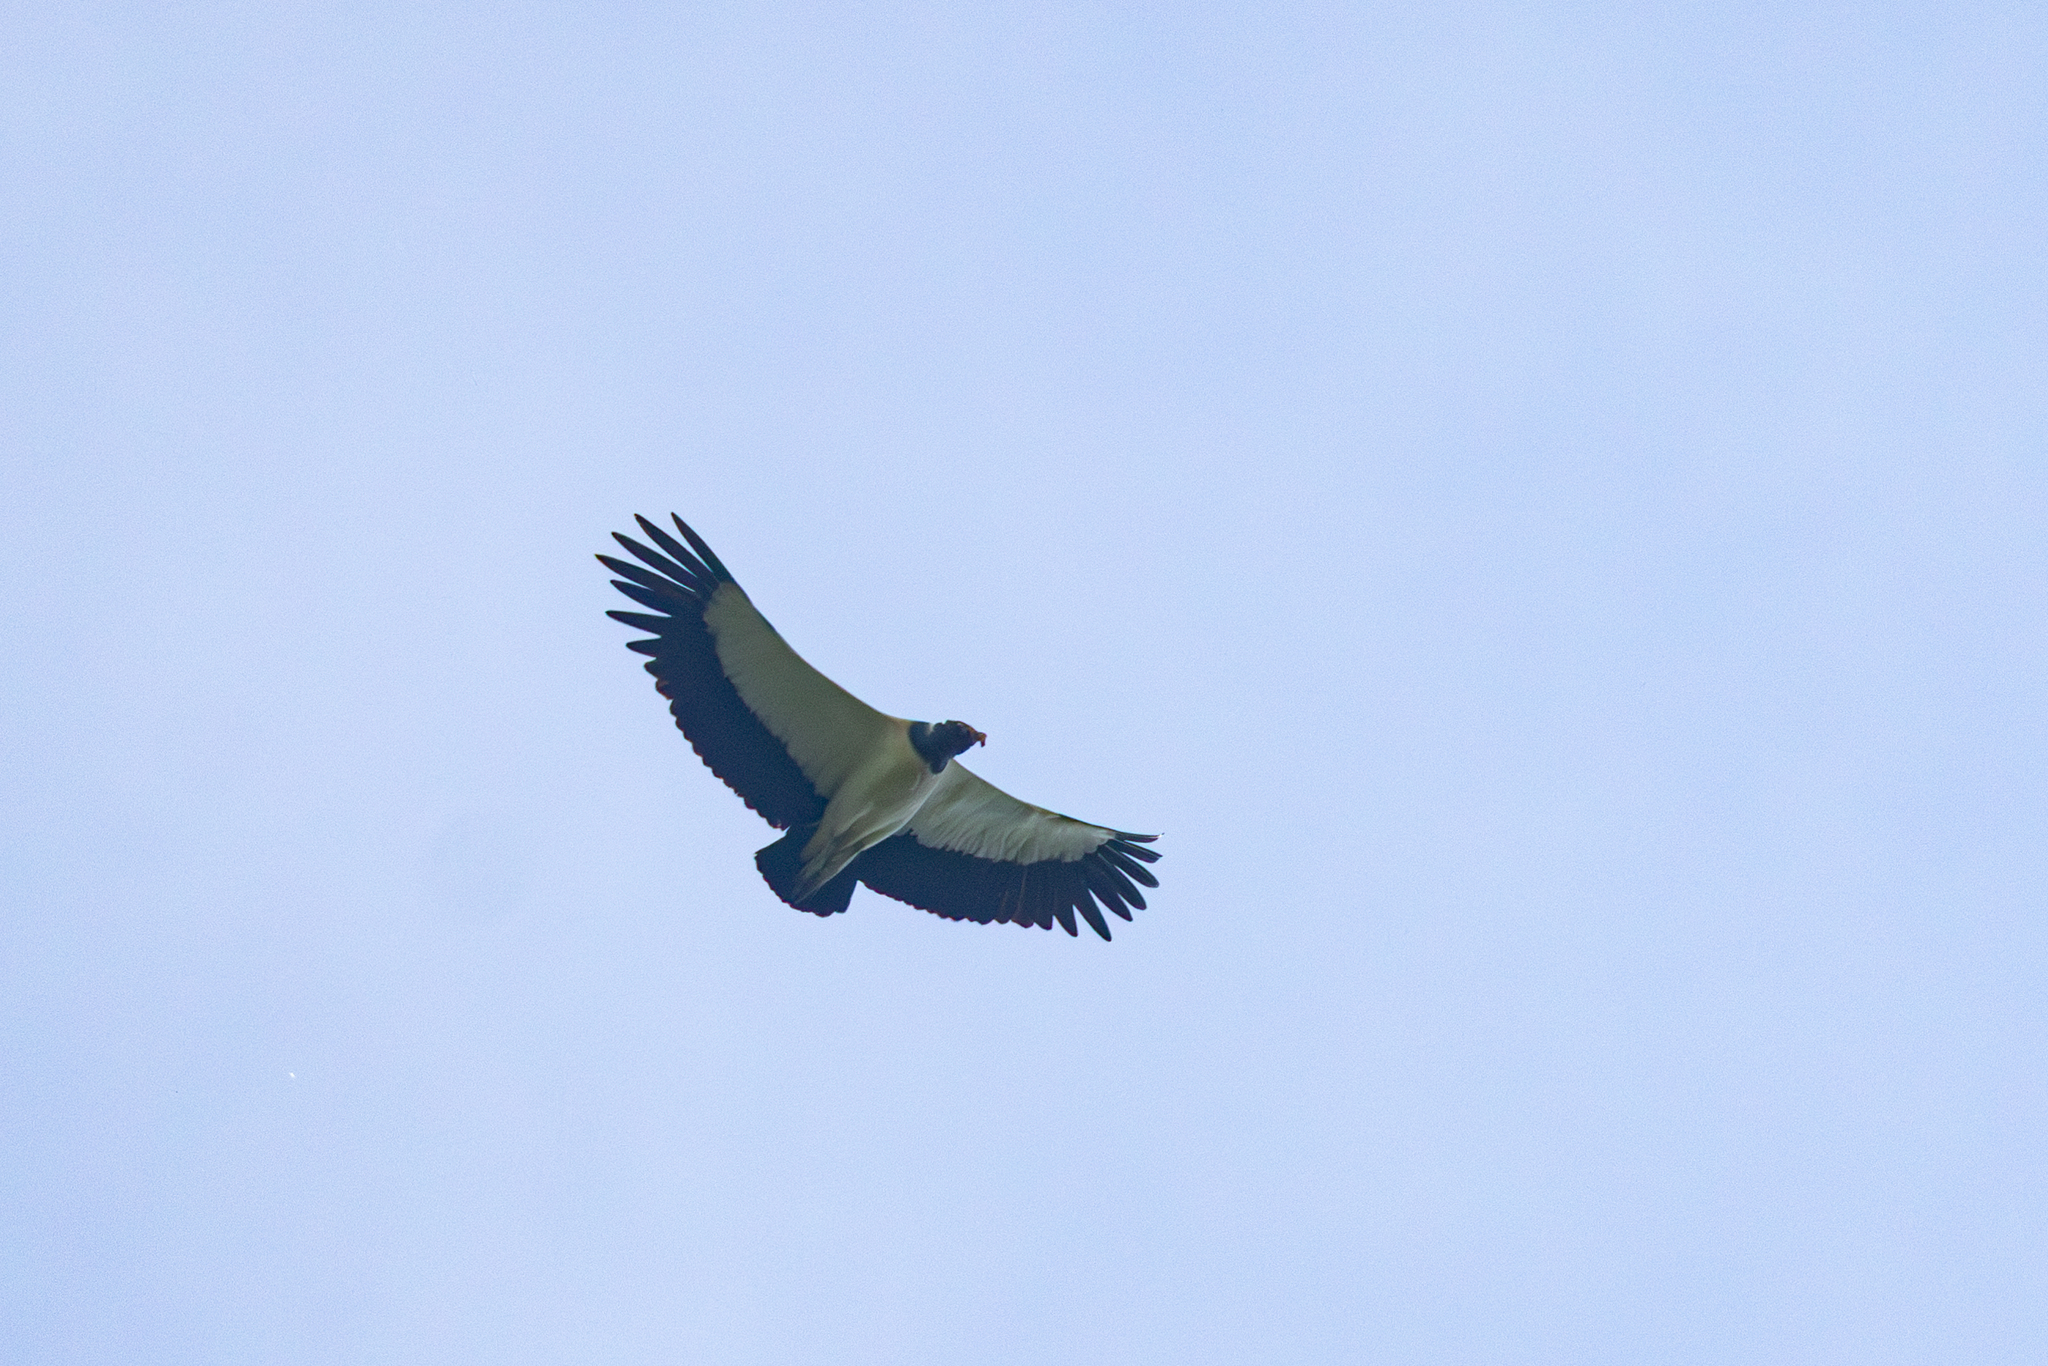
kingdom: Animalia
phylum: Chordata
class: Aves
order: Accipitriformes
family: Cathartidae
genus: Sarcoramphus
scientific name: Sarcoramphus papa
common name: King vulture
